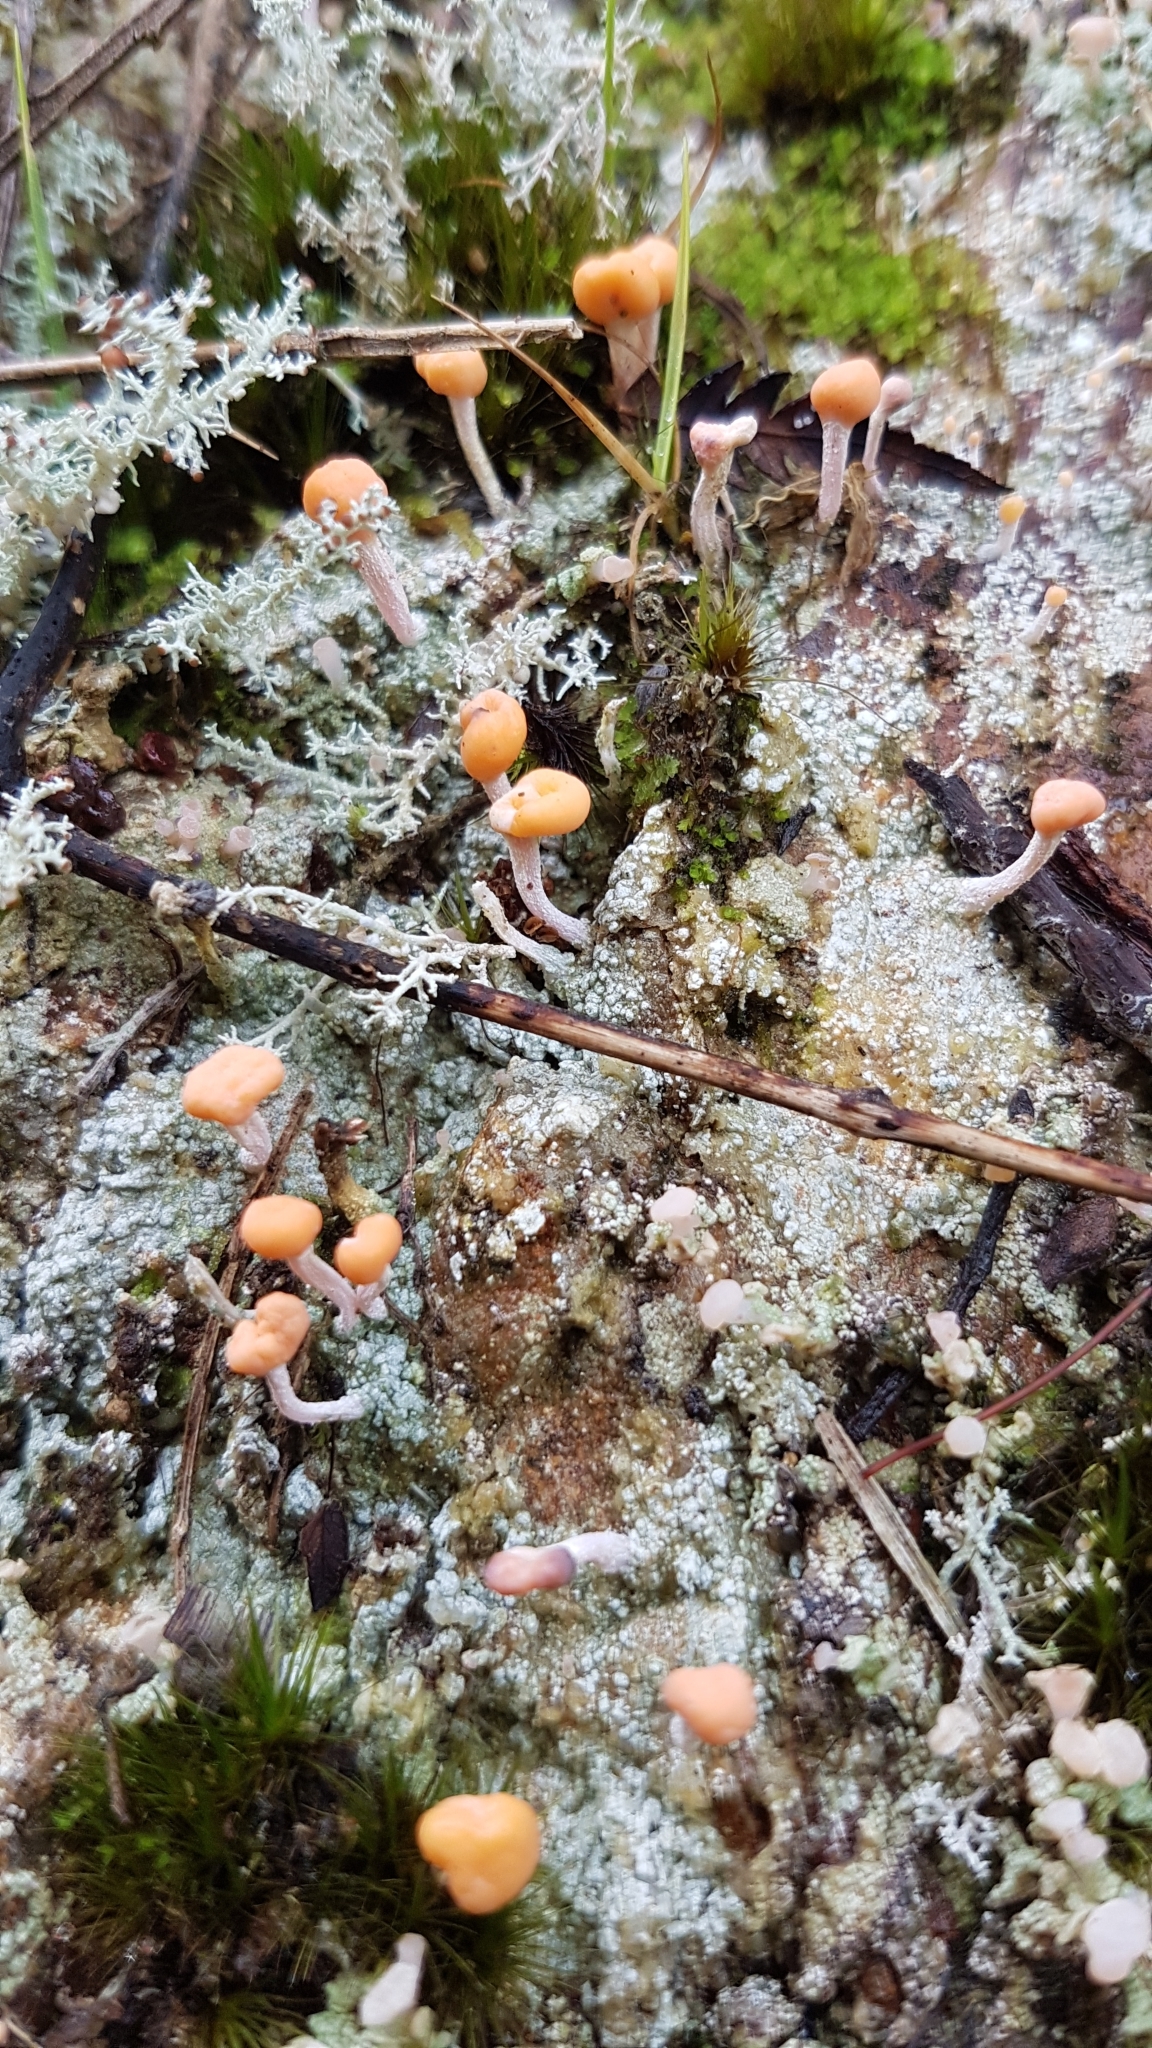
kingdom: Fungi
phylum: Ascomycota
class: Lecanoromycetes
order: Pertusariales
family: Icmadophilaceae
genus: Dibaeis
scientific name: Dibaeis arcuata
